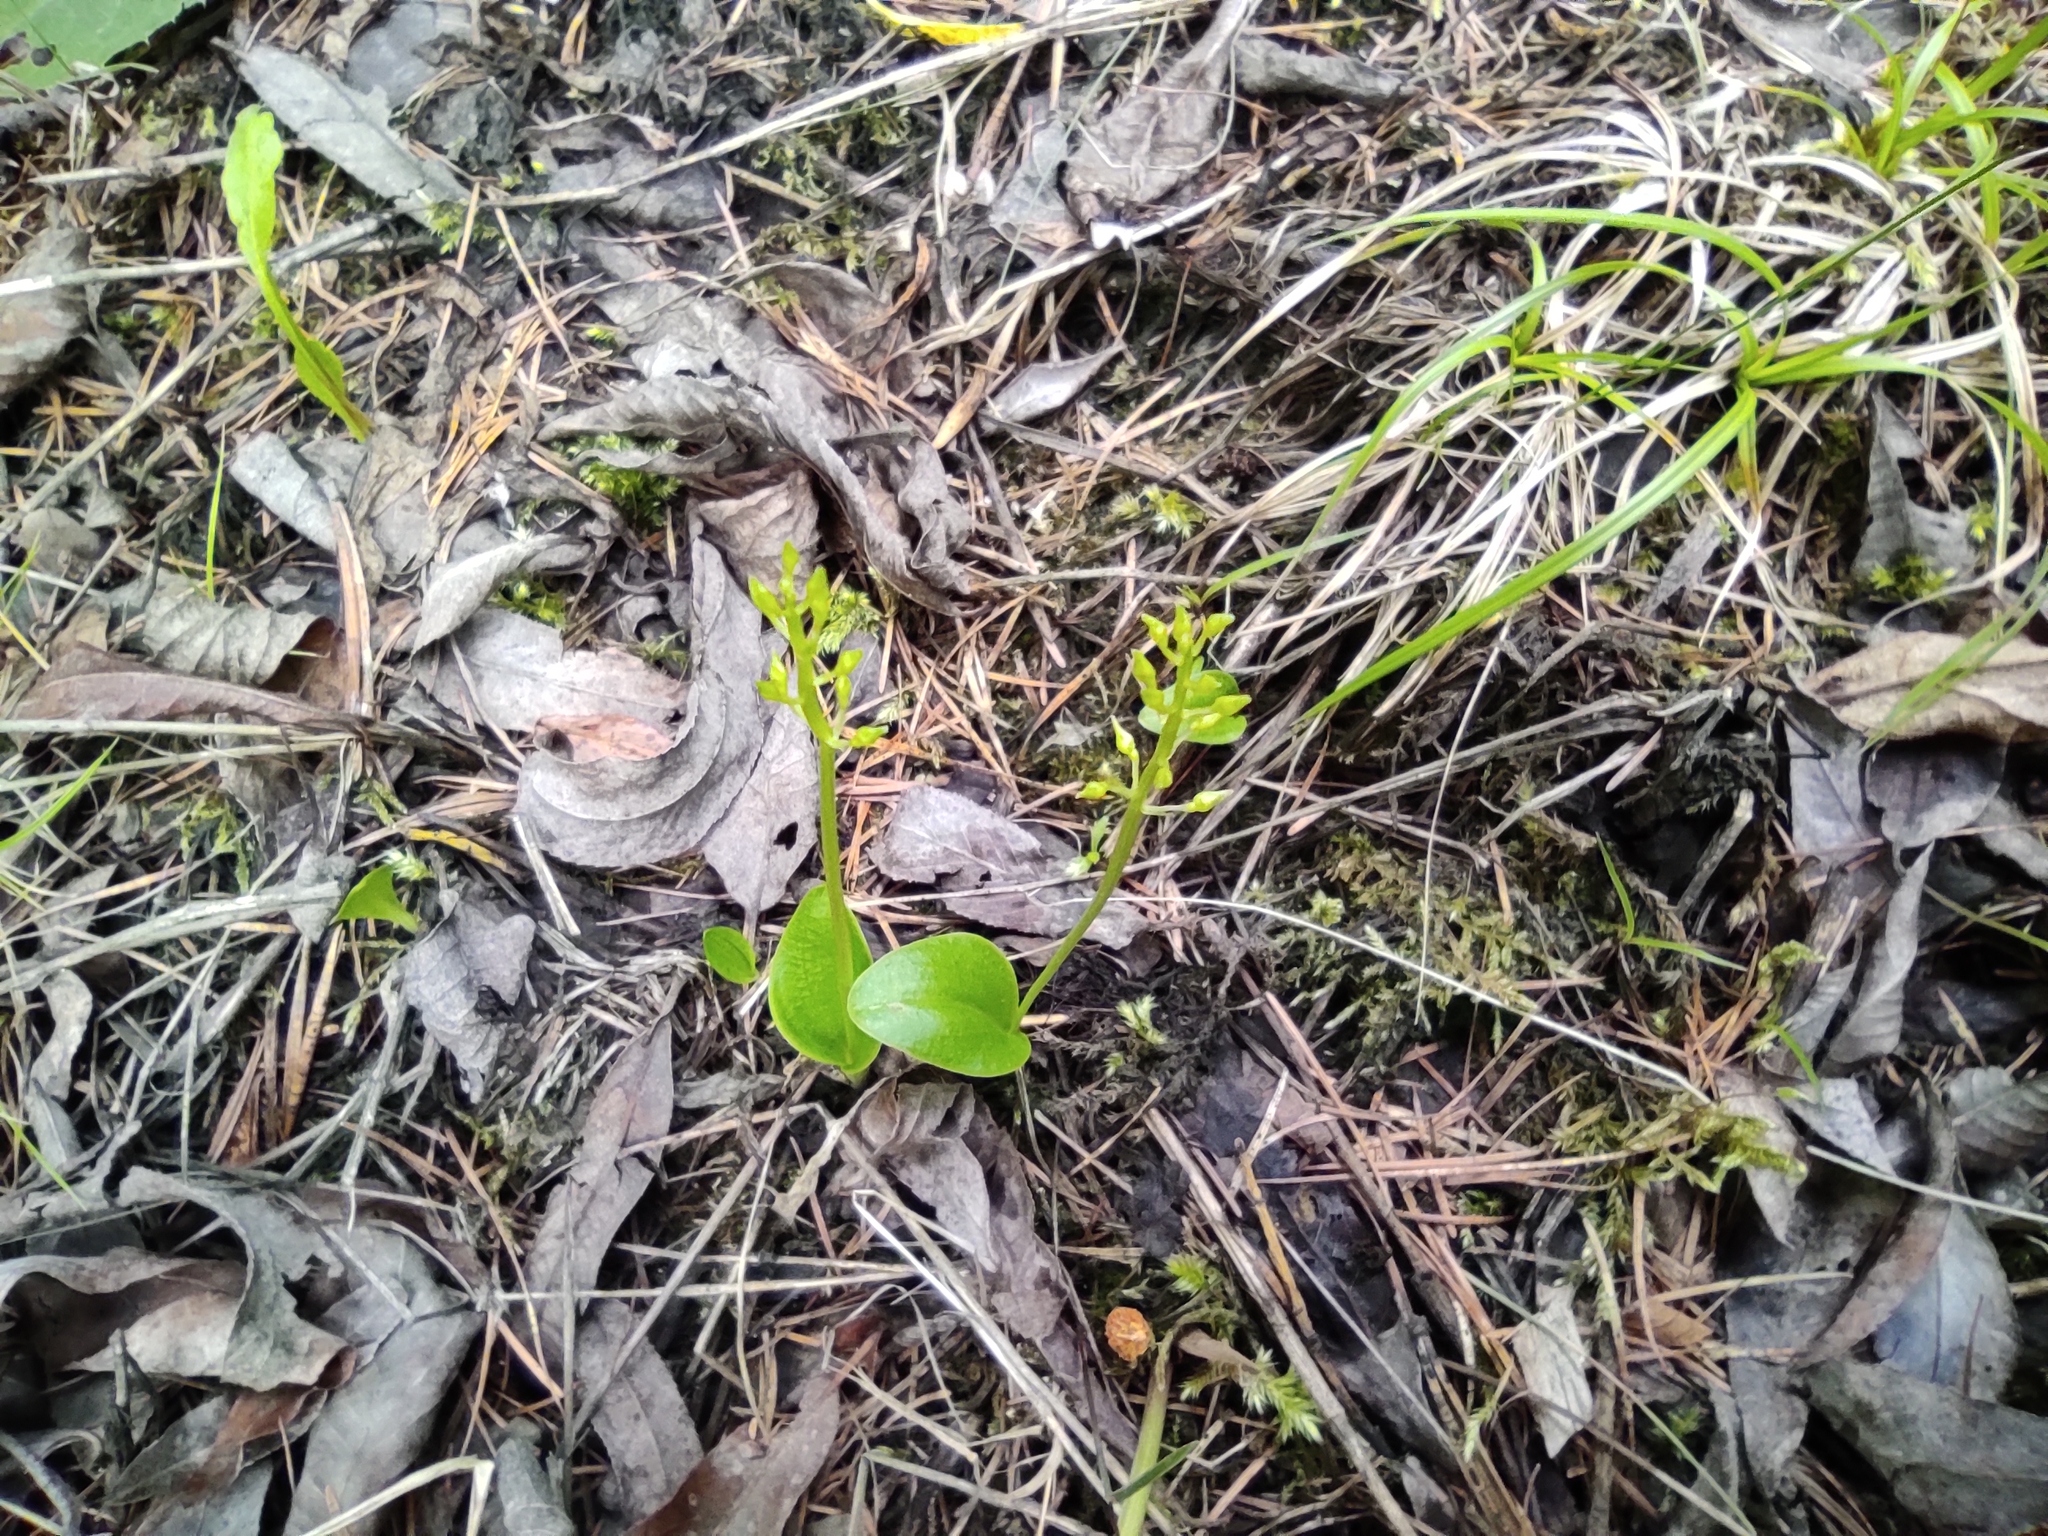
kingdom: Plantae
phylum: Tracheophyta
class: Liliopsida
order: Asparagales
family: Orchidaceae
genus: Malaxis
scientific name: Malaxis monophyllos
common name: White adder's-mouth
